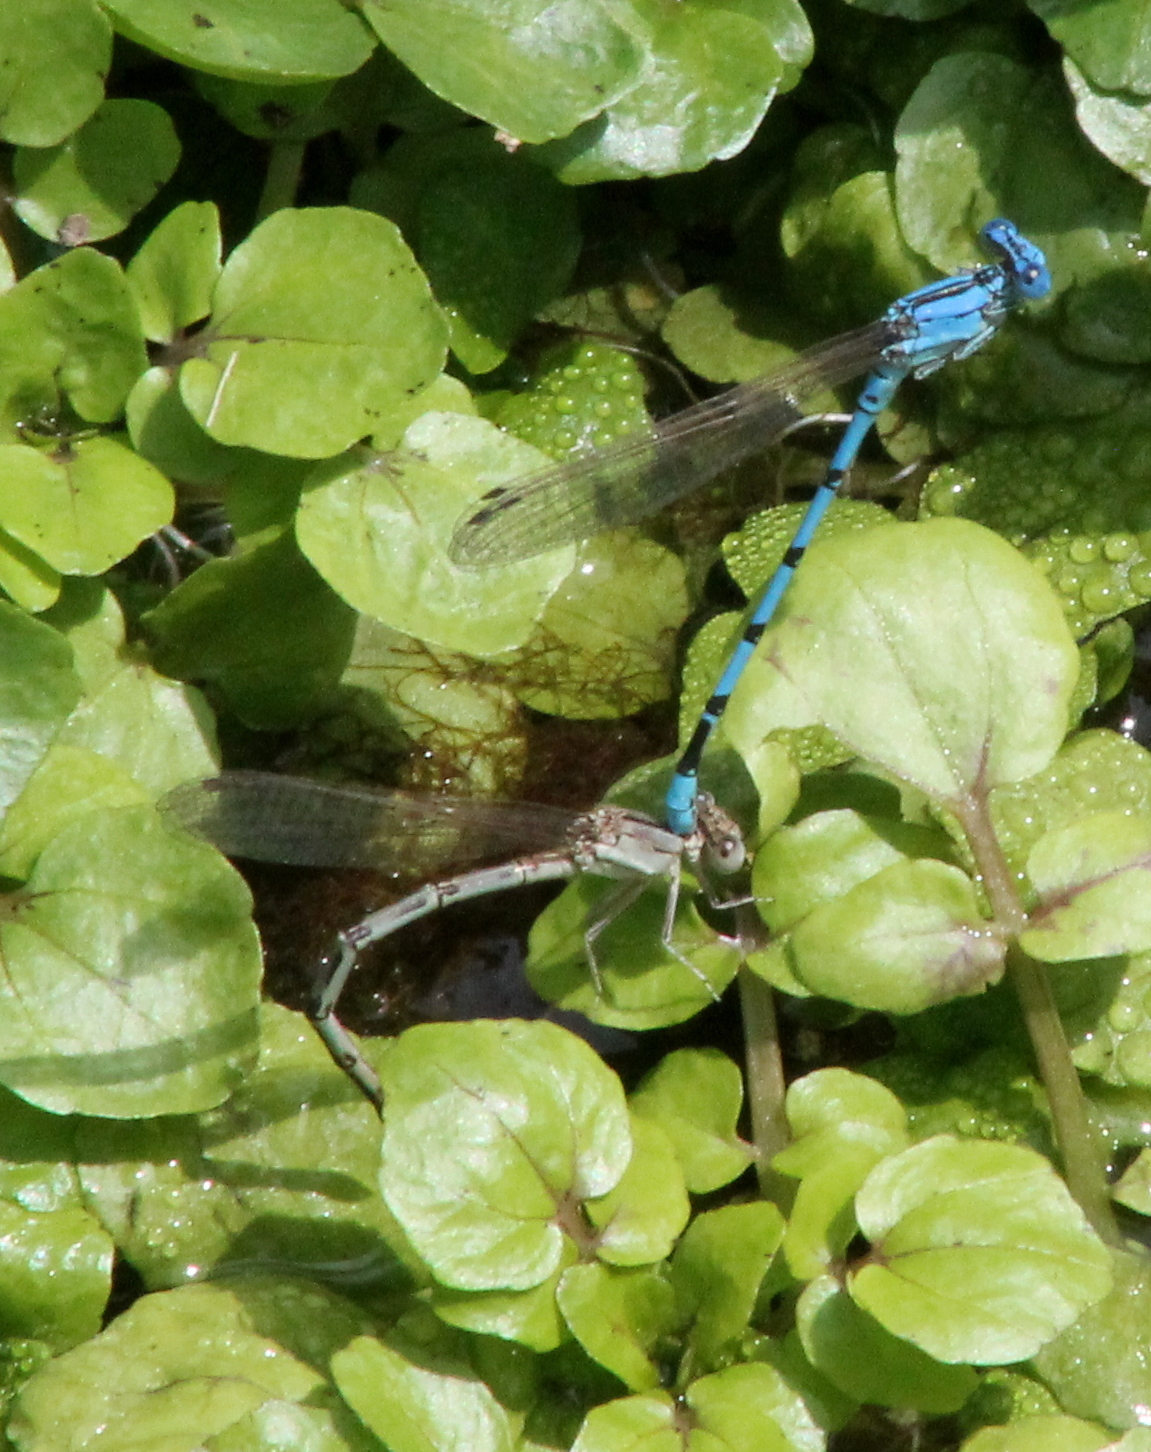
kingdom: Animalia
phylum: Arthropoda
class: Insecta
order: Odonata
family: Coenagrionidae
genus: Argia
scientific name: Argia nahuana
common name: Aztec dancer
